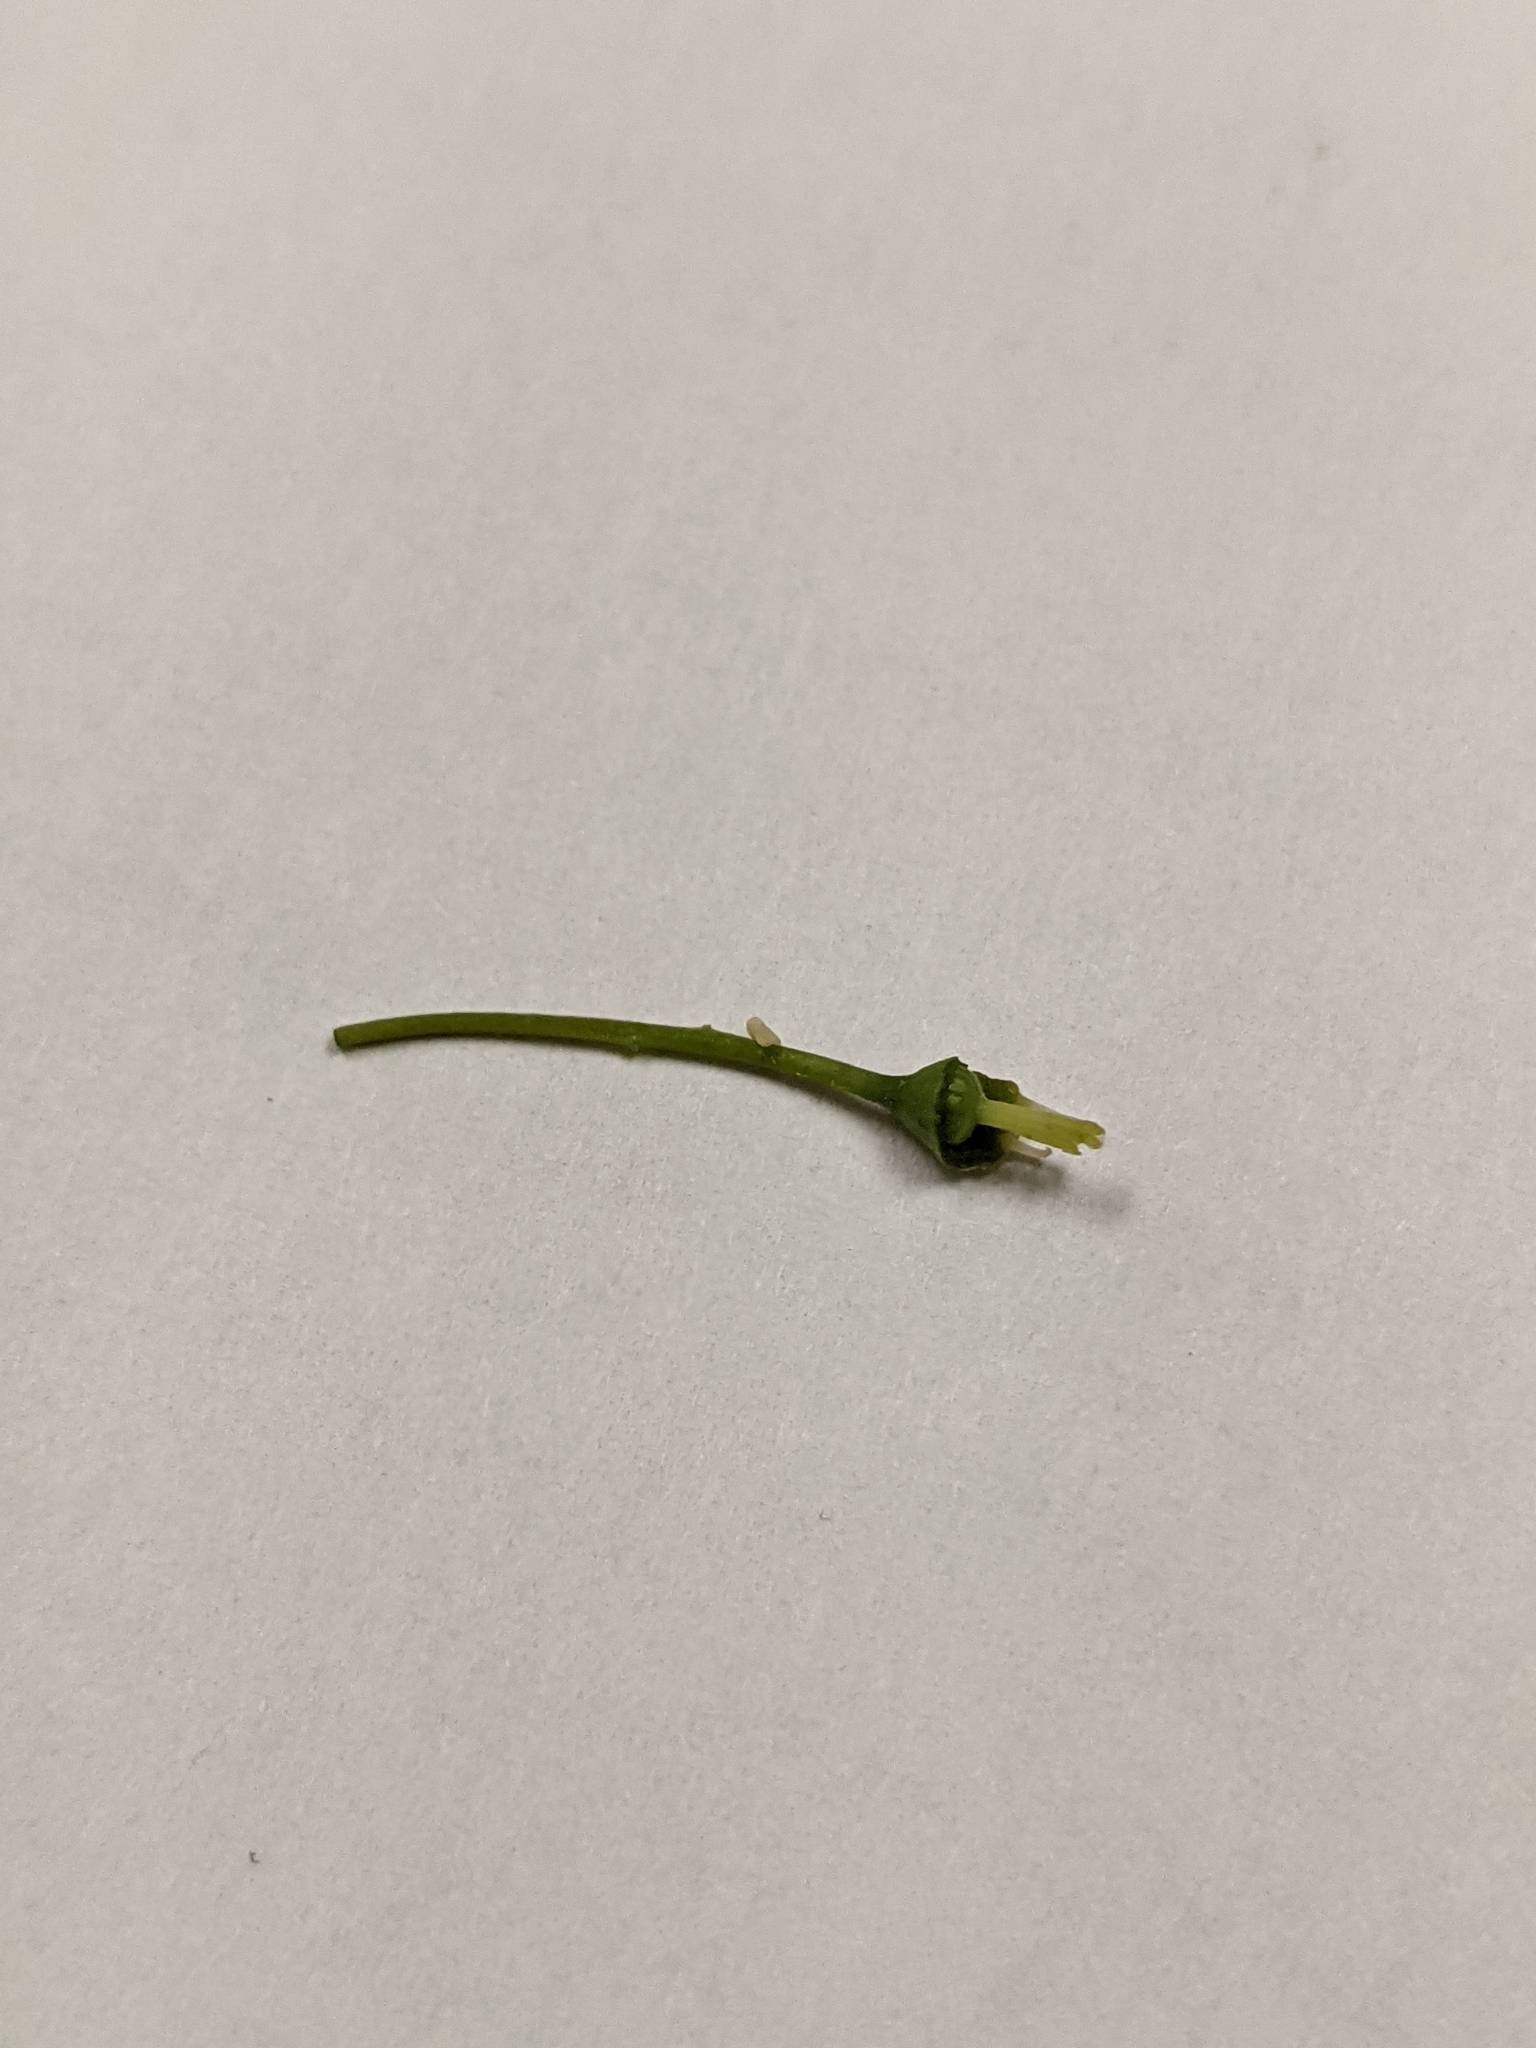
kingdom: Plantae
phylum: Tracheophyta
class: Magnoliopsida
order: Rosales
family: Rosaceae
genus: Amelanchier
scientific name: Amelanchier arborea
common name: Downy serviceberry
